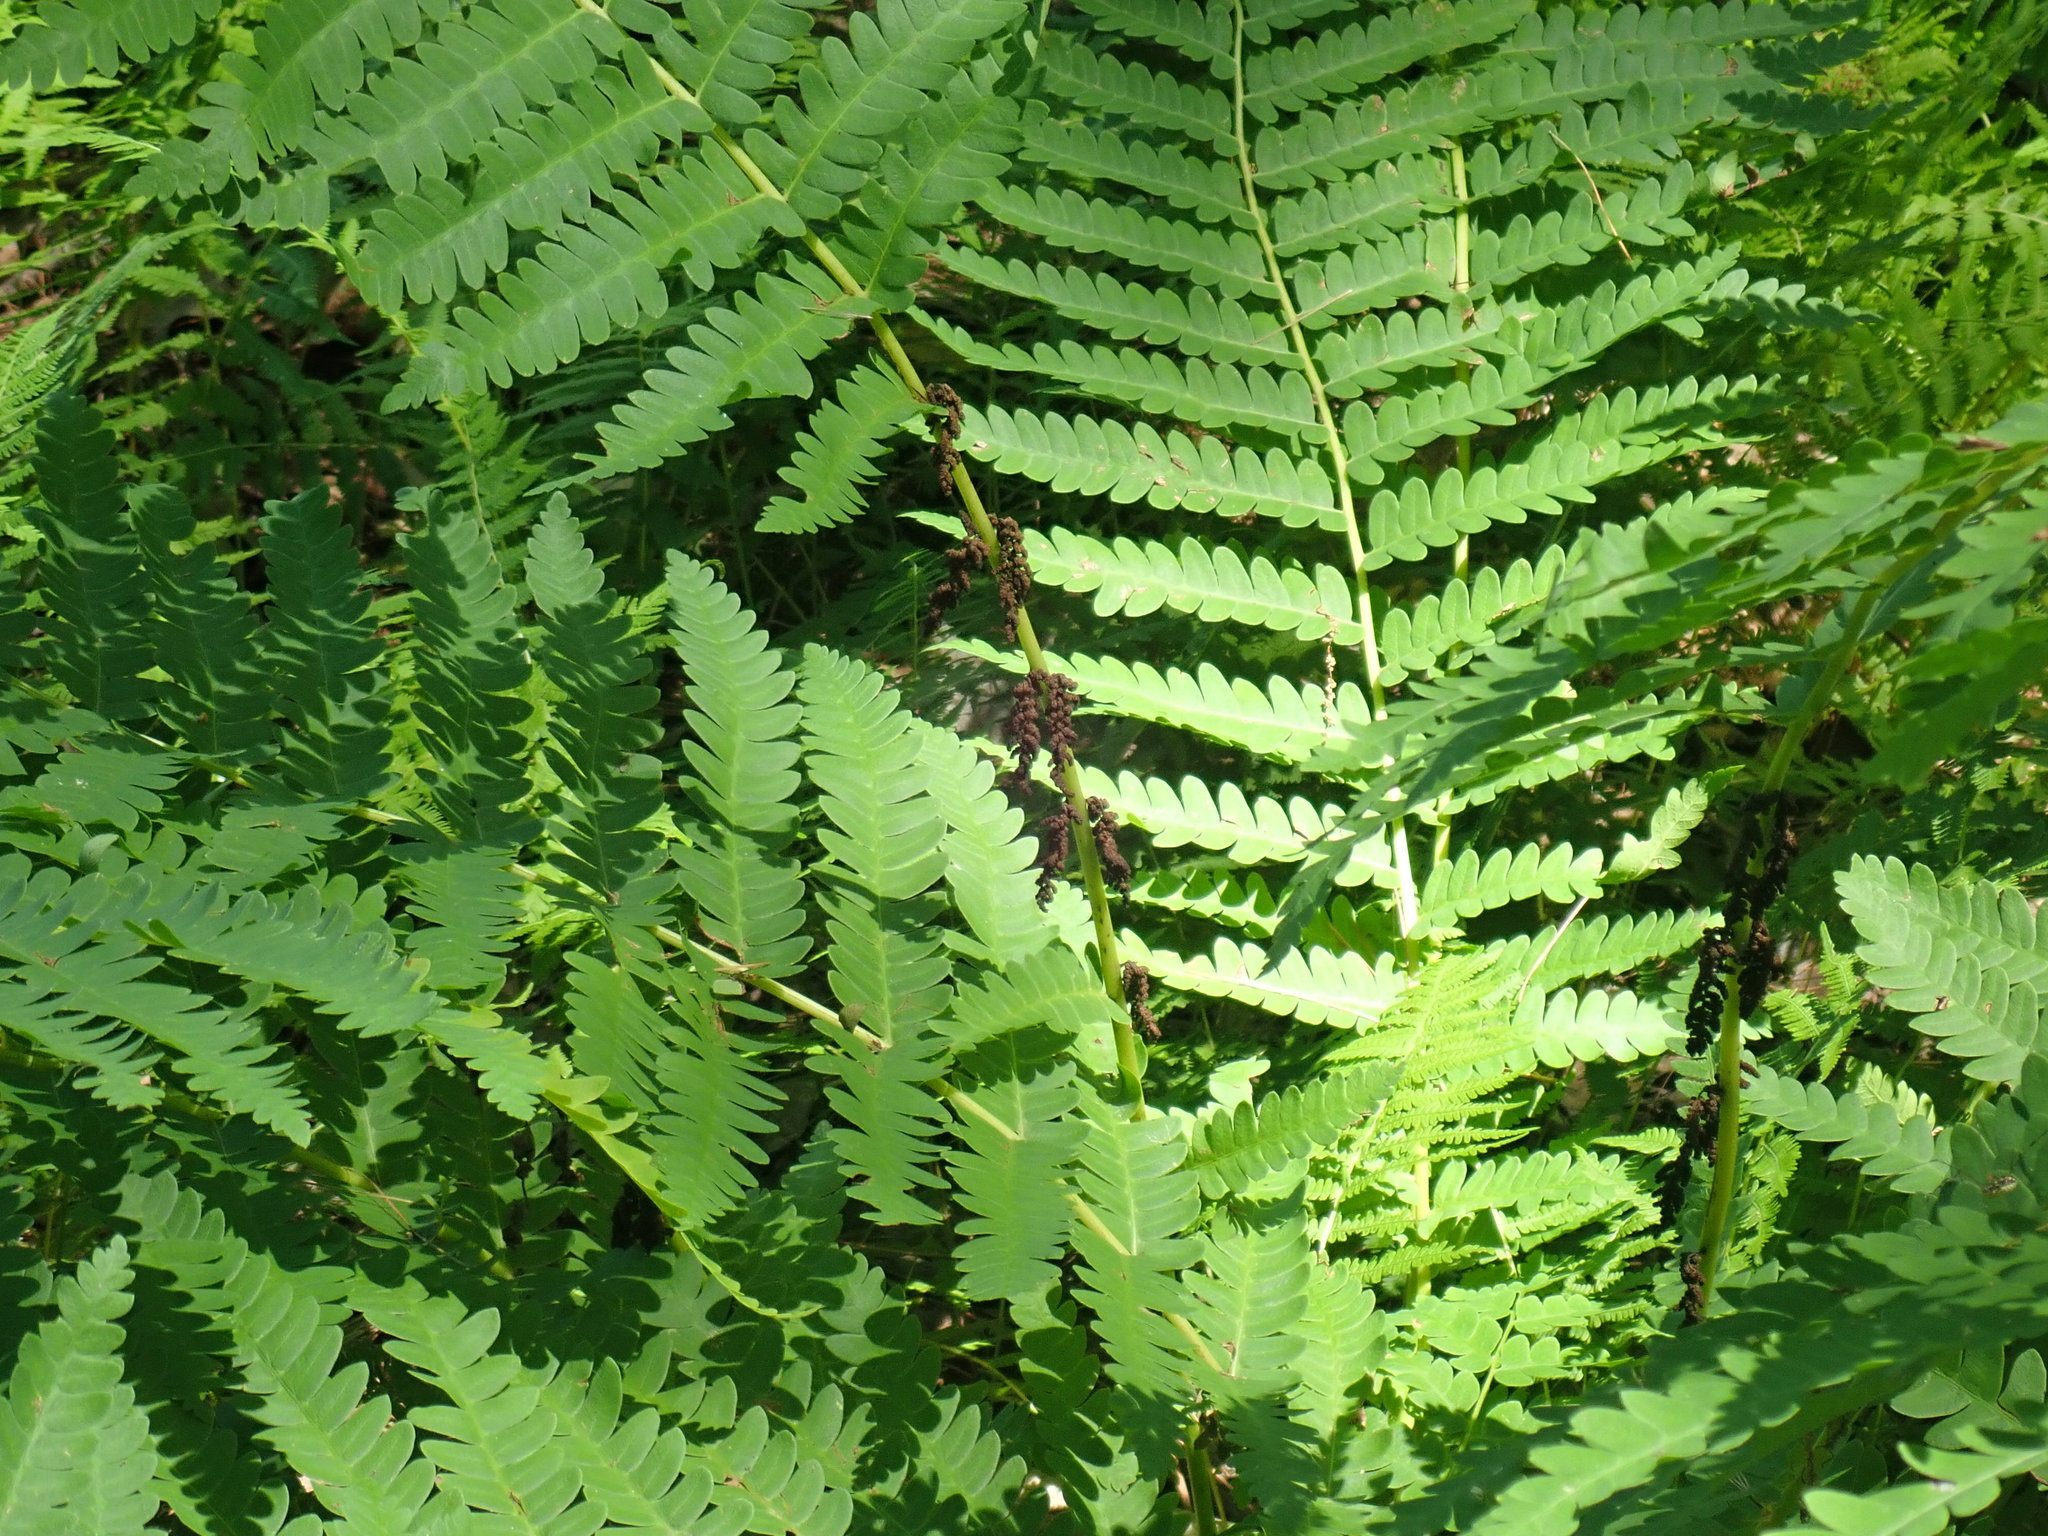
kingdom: Plantae
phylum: Tracheophyta
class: Polypodiopsida
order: Osmundales
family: Osmundaceae
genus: Claytosmunda
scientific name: Claytosmunda claytoniana
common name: Clayton's fern
